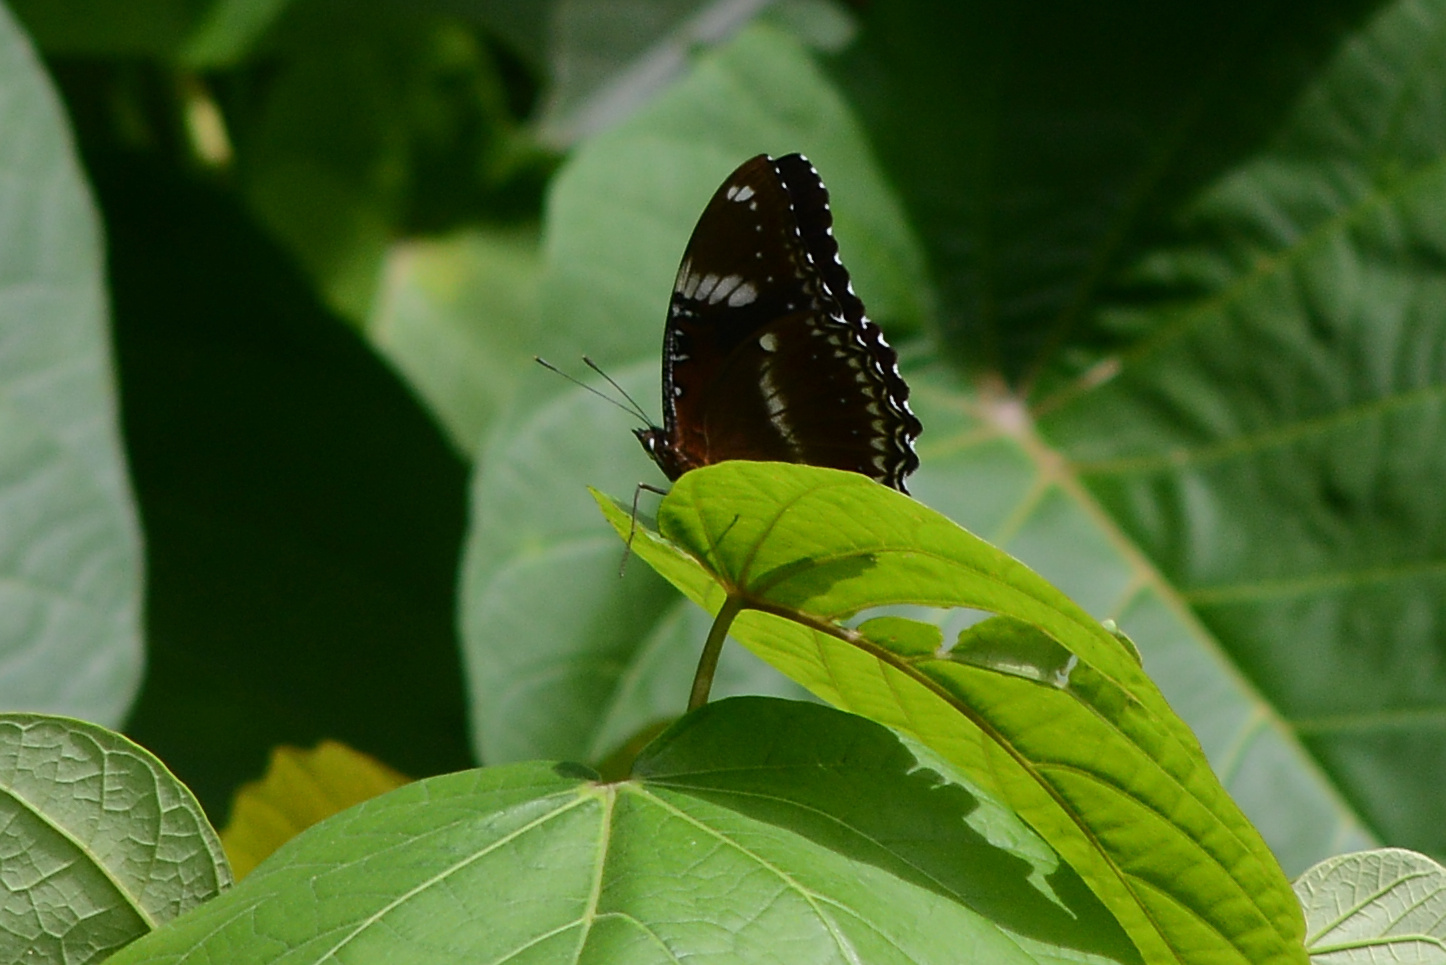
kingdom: Animalia
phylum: Arthropoda
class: Insecta
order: Lepidoptera
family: Nymphalidae
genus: Hypolimnas
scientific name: Hypolimnas bolina
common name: Great eggfly
